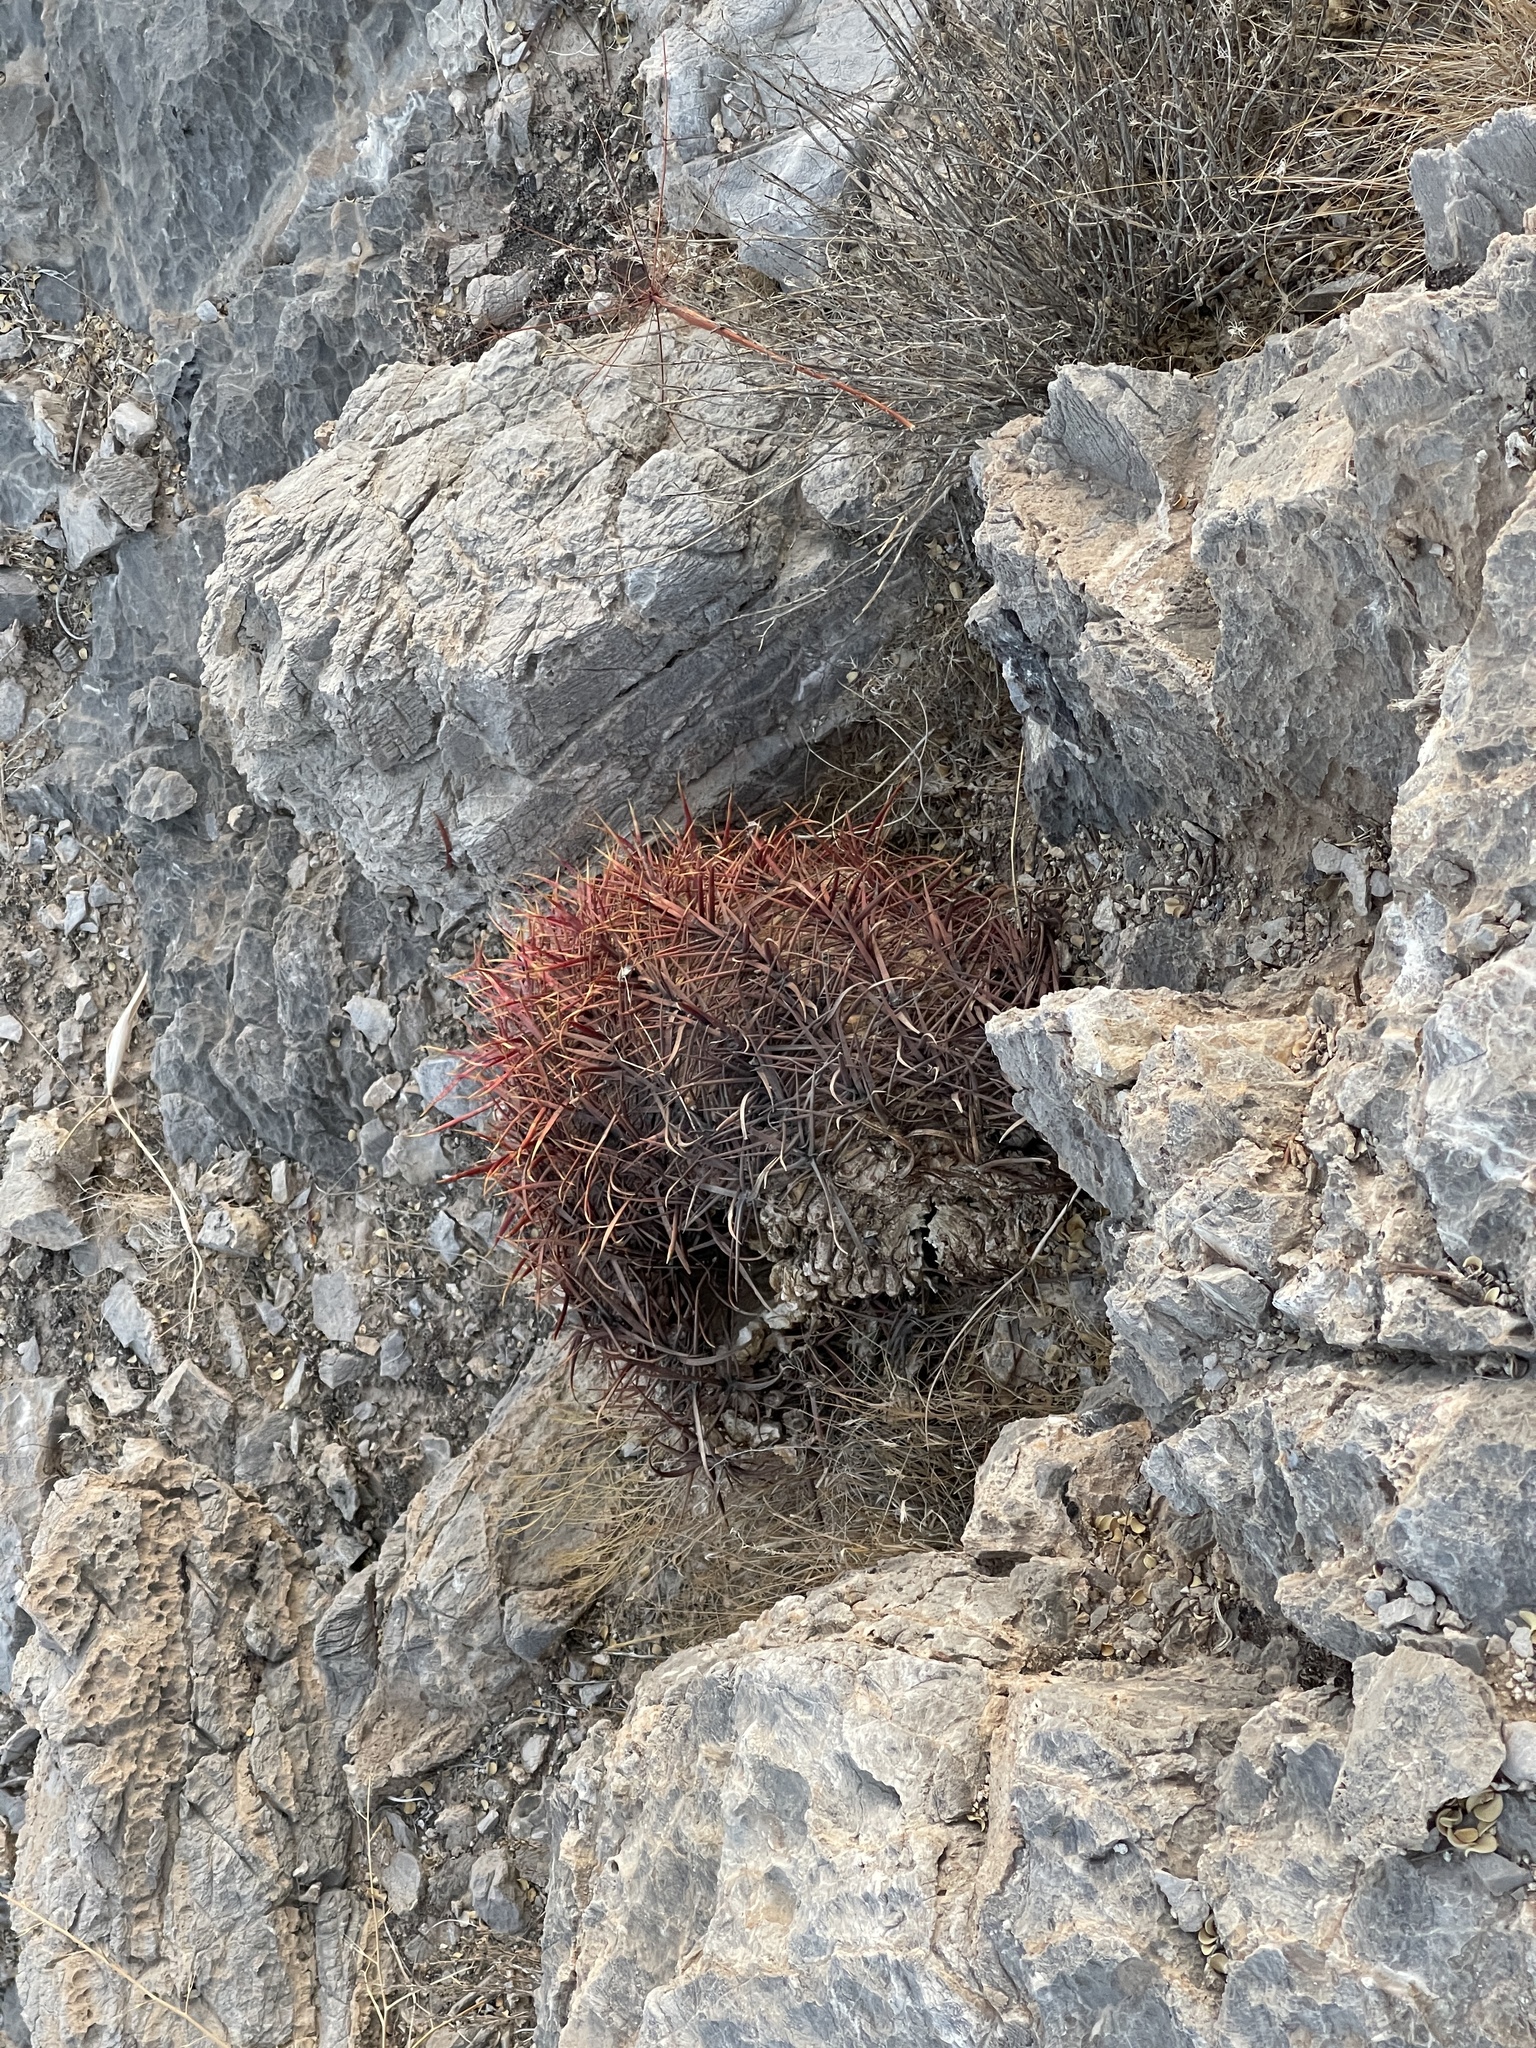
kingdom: Plantae
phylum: Tracheophyta
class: Magnoliopsida
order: Caryophyllales
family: Cactaceae
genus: Ferocactus
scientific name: Ferocactus cylindraceus
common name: California barrel cactus
